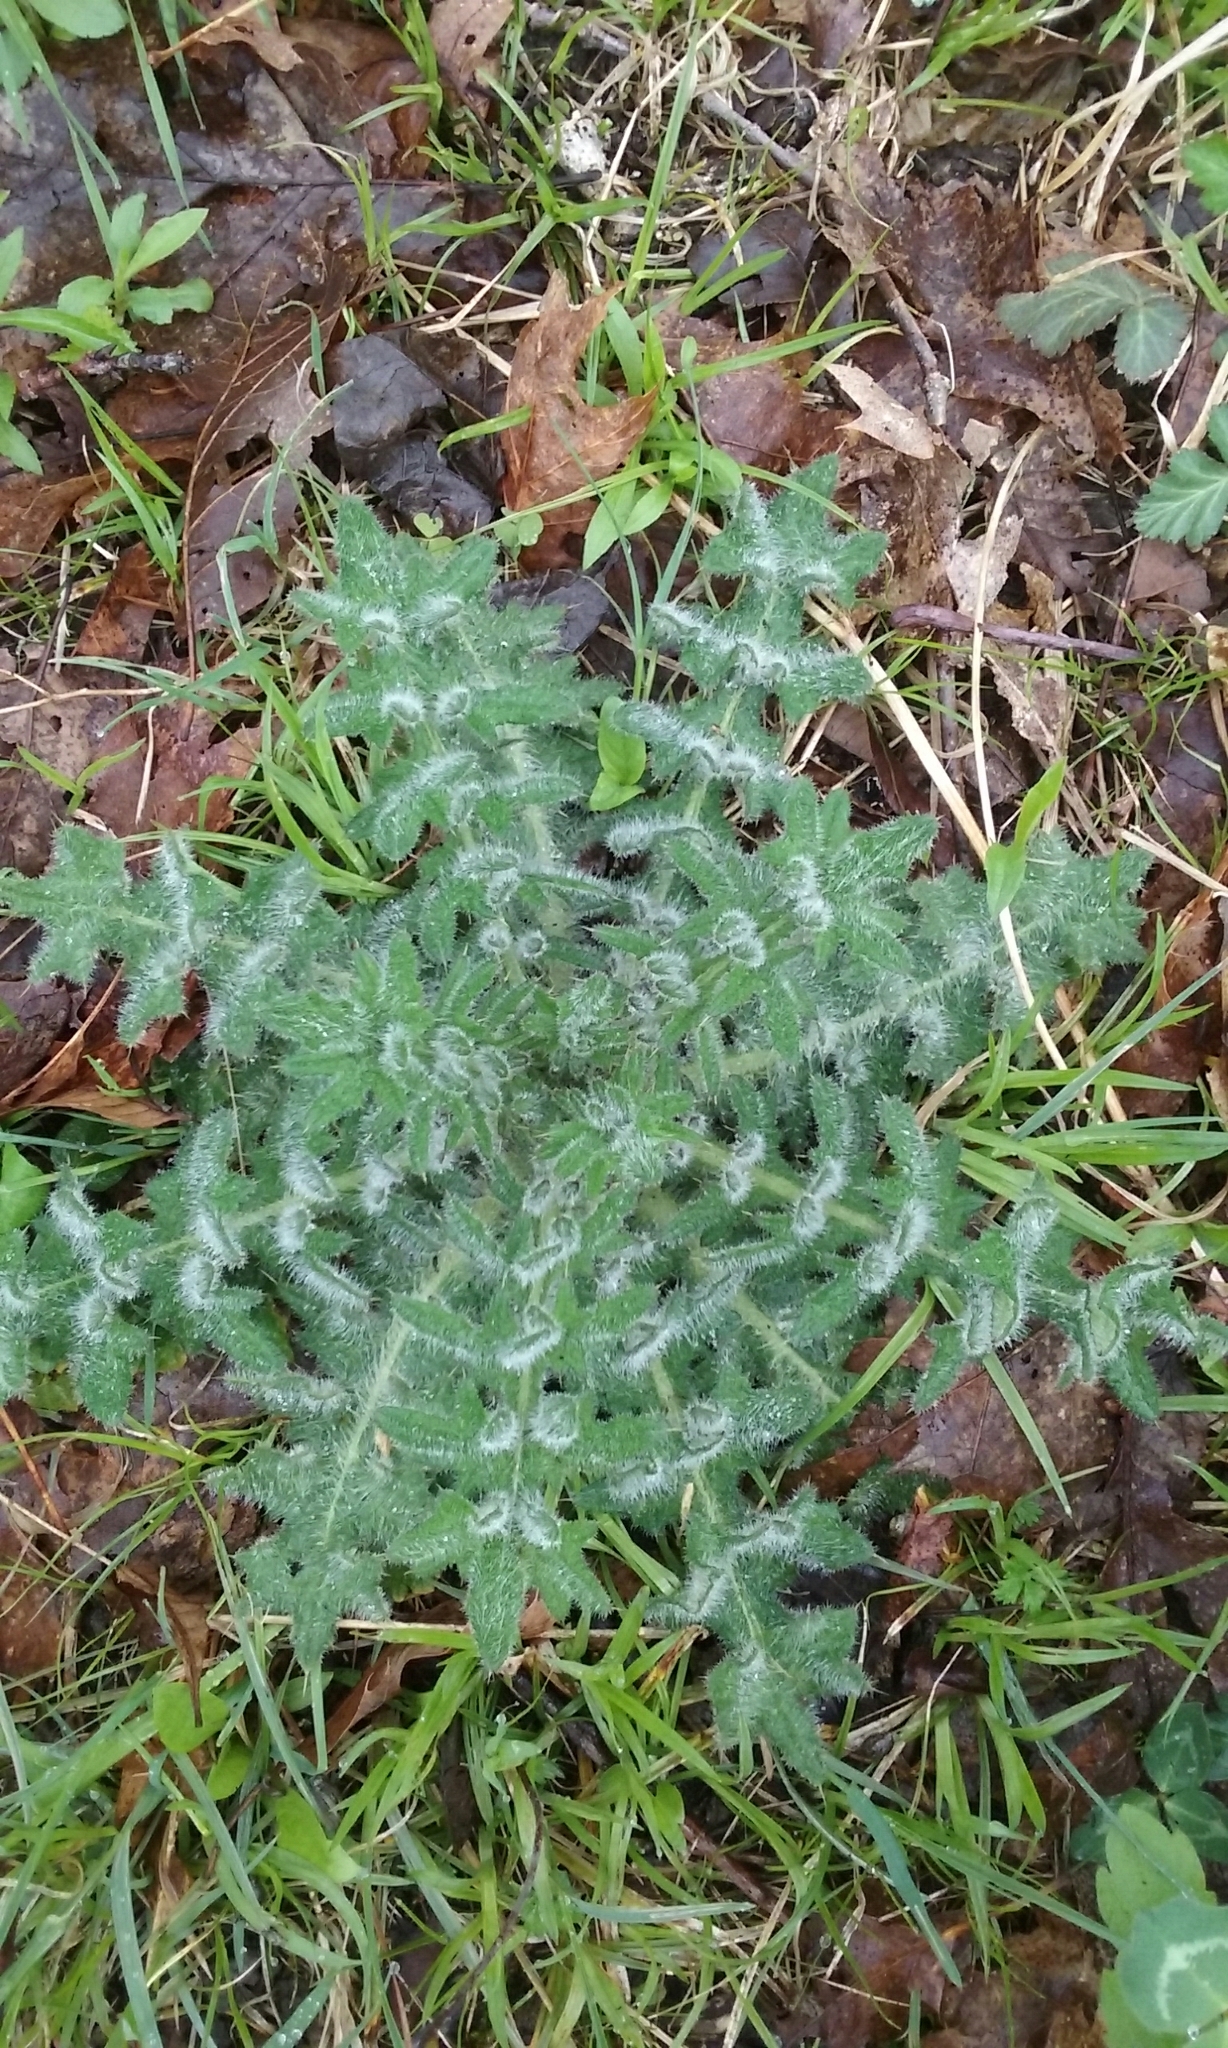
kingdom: Plantae
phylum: Tracheophyta
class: Magnoliopsida
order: Asterales
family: Asteraceae
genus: Cirsium
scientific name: Cirsium vulgare
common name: Bull thistle
